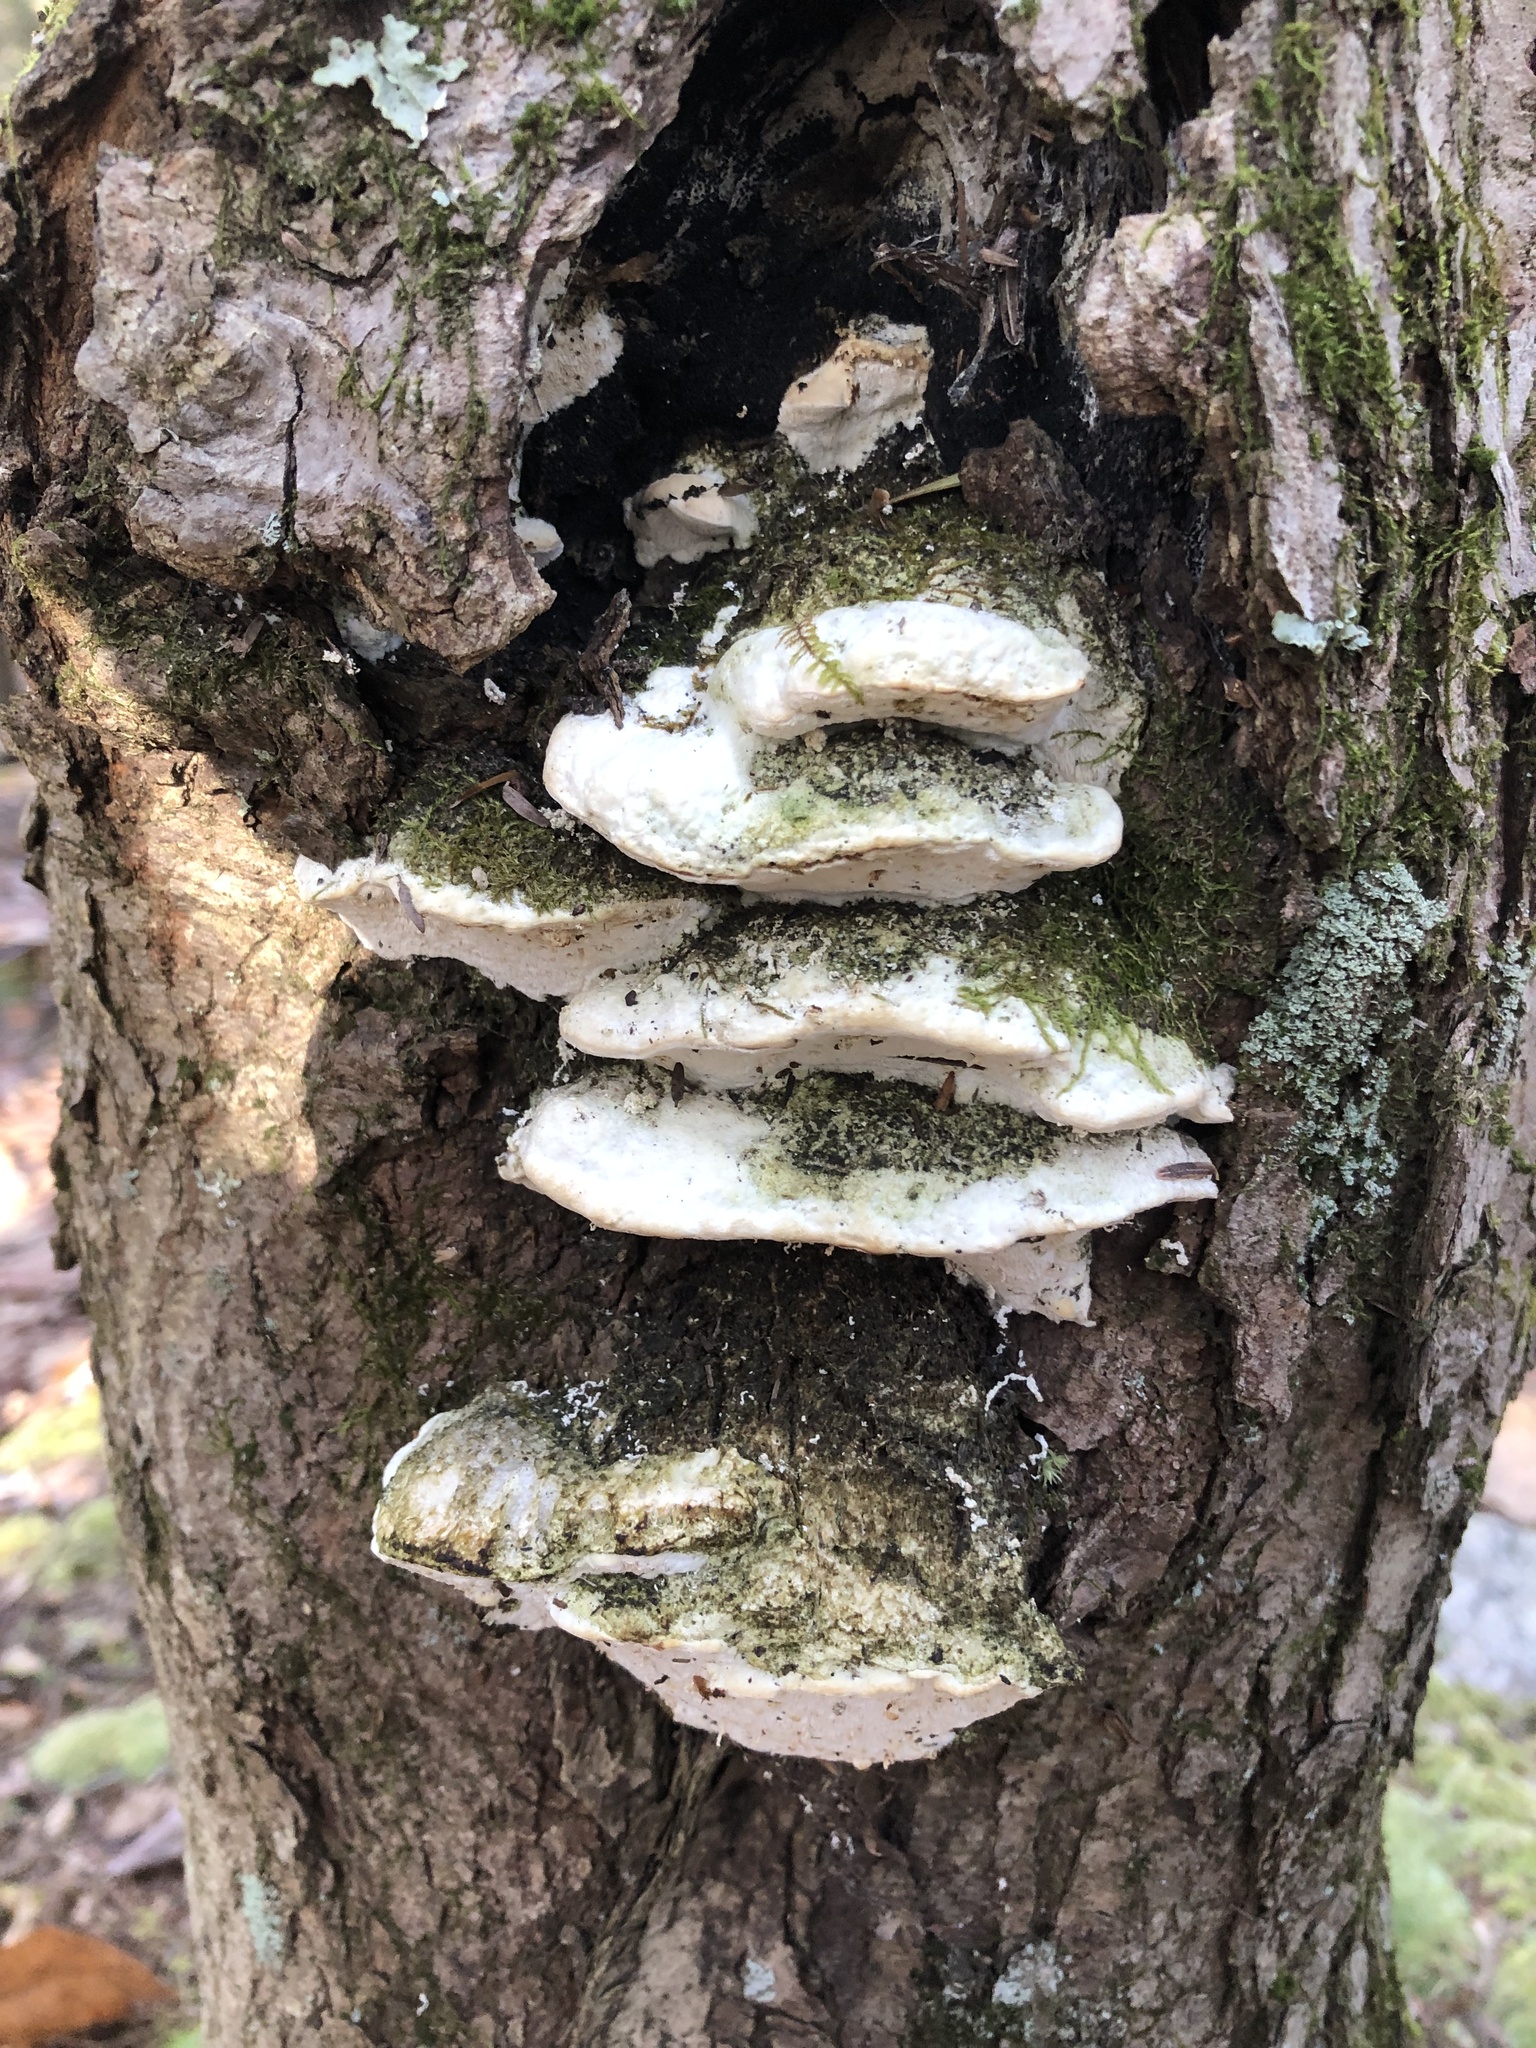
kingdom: Fungi
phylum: Basidiomycota
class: Agaricomycetes
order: Hymenochaetales
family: Oxyporaceae
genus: Oxyporus
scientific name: Oxyporus populinus
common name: Poplar bracket
